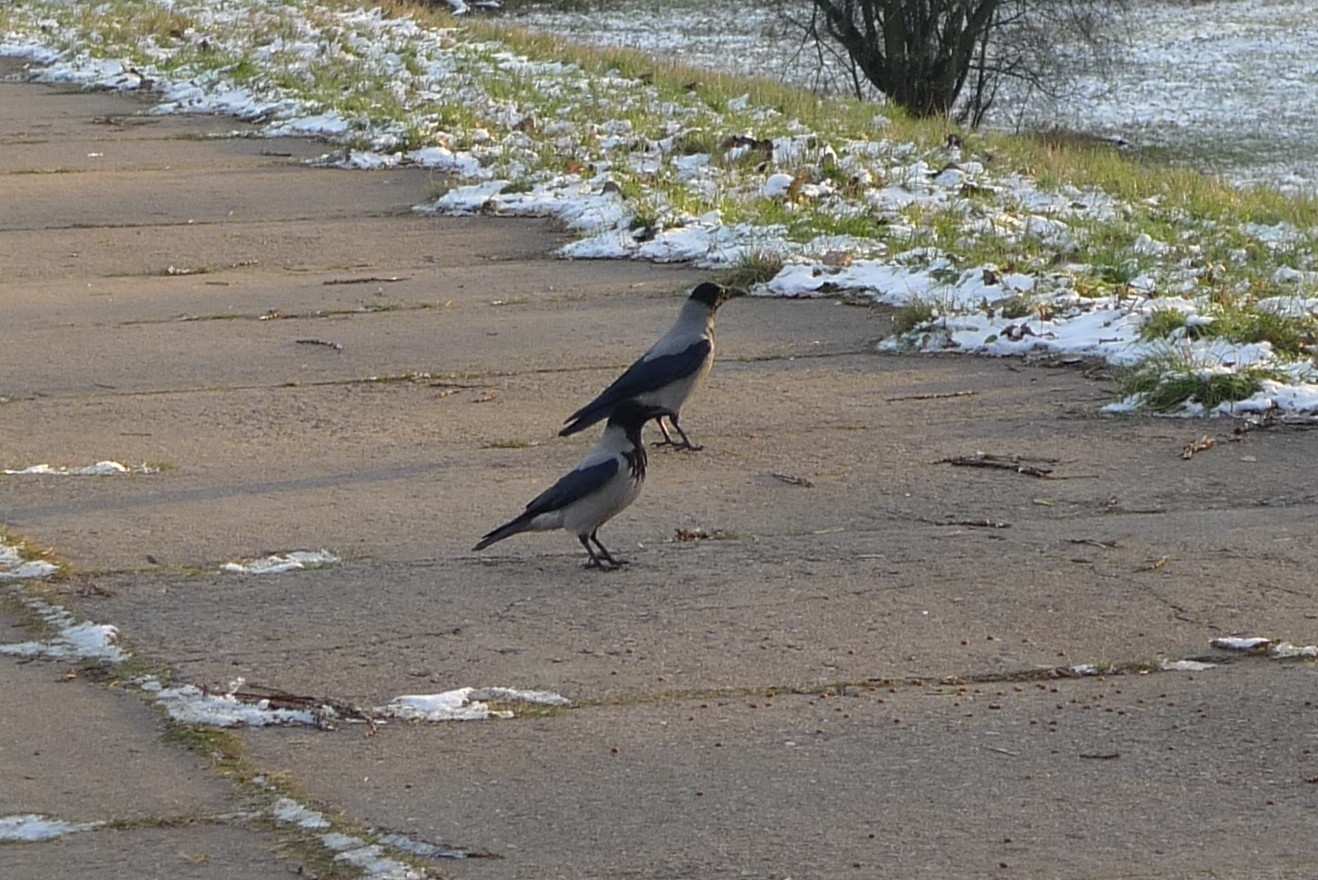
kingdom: Animalia
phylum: Chordata
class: Aves
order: Passeriformes
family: Corvidae
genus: Corvus
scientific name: Corvus cornix
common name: Hooded crow
